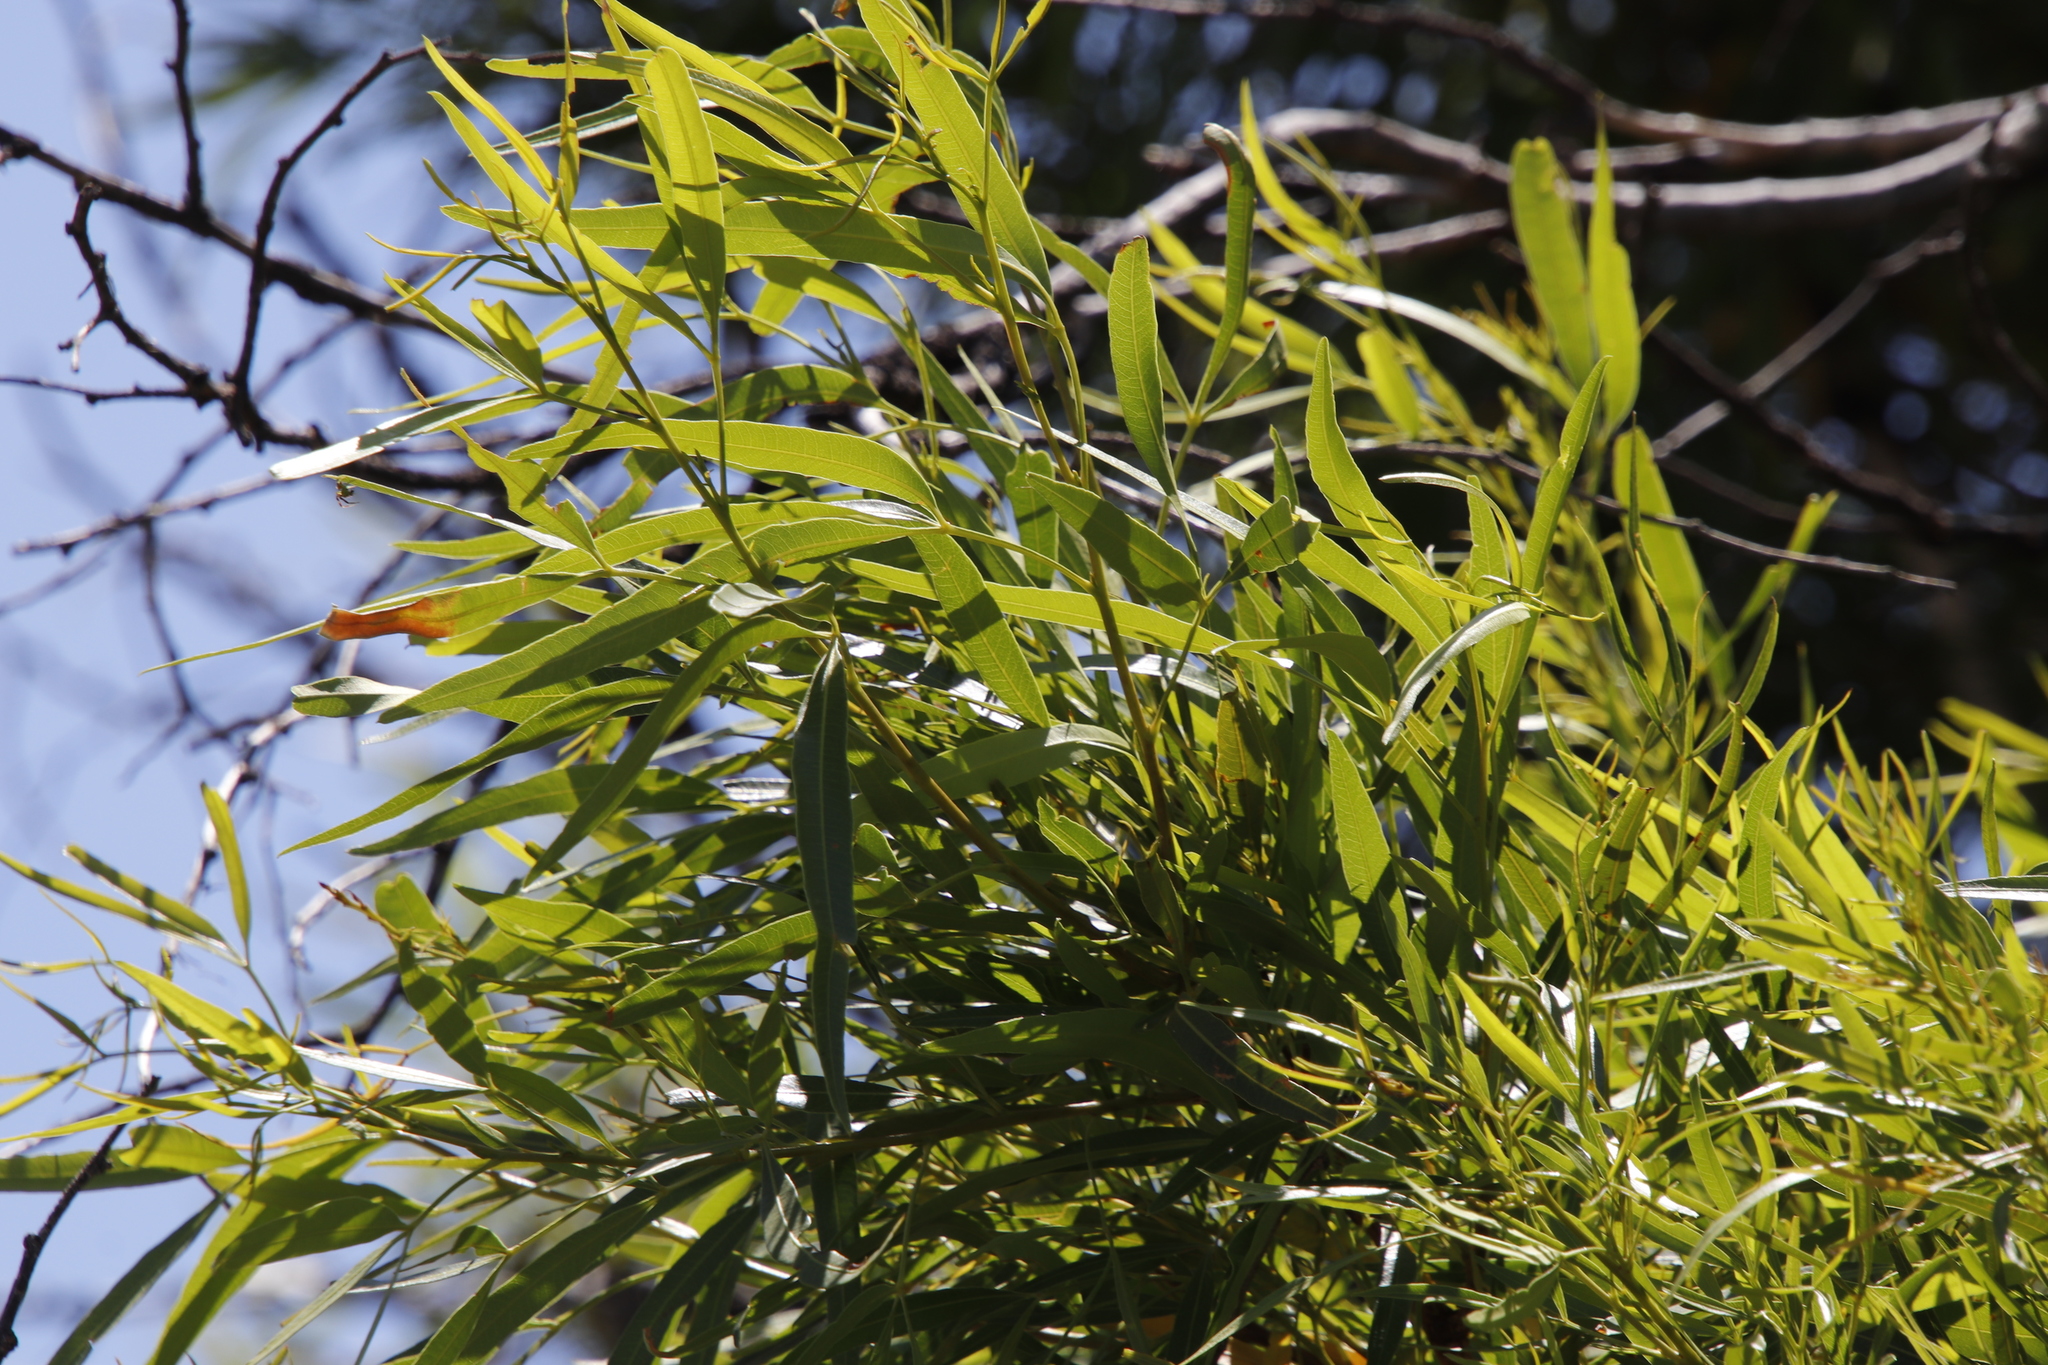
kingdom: Plantae
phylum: Tracheophyta
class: Magnoliopsida
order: Sapindales
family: Anacardiaceae
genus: Searsia
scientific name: Searsia lancea
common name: Cashew
